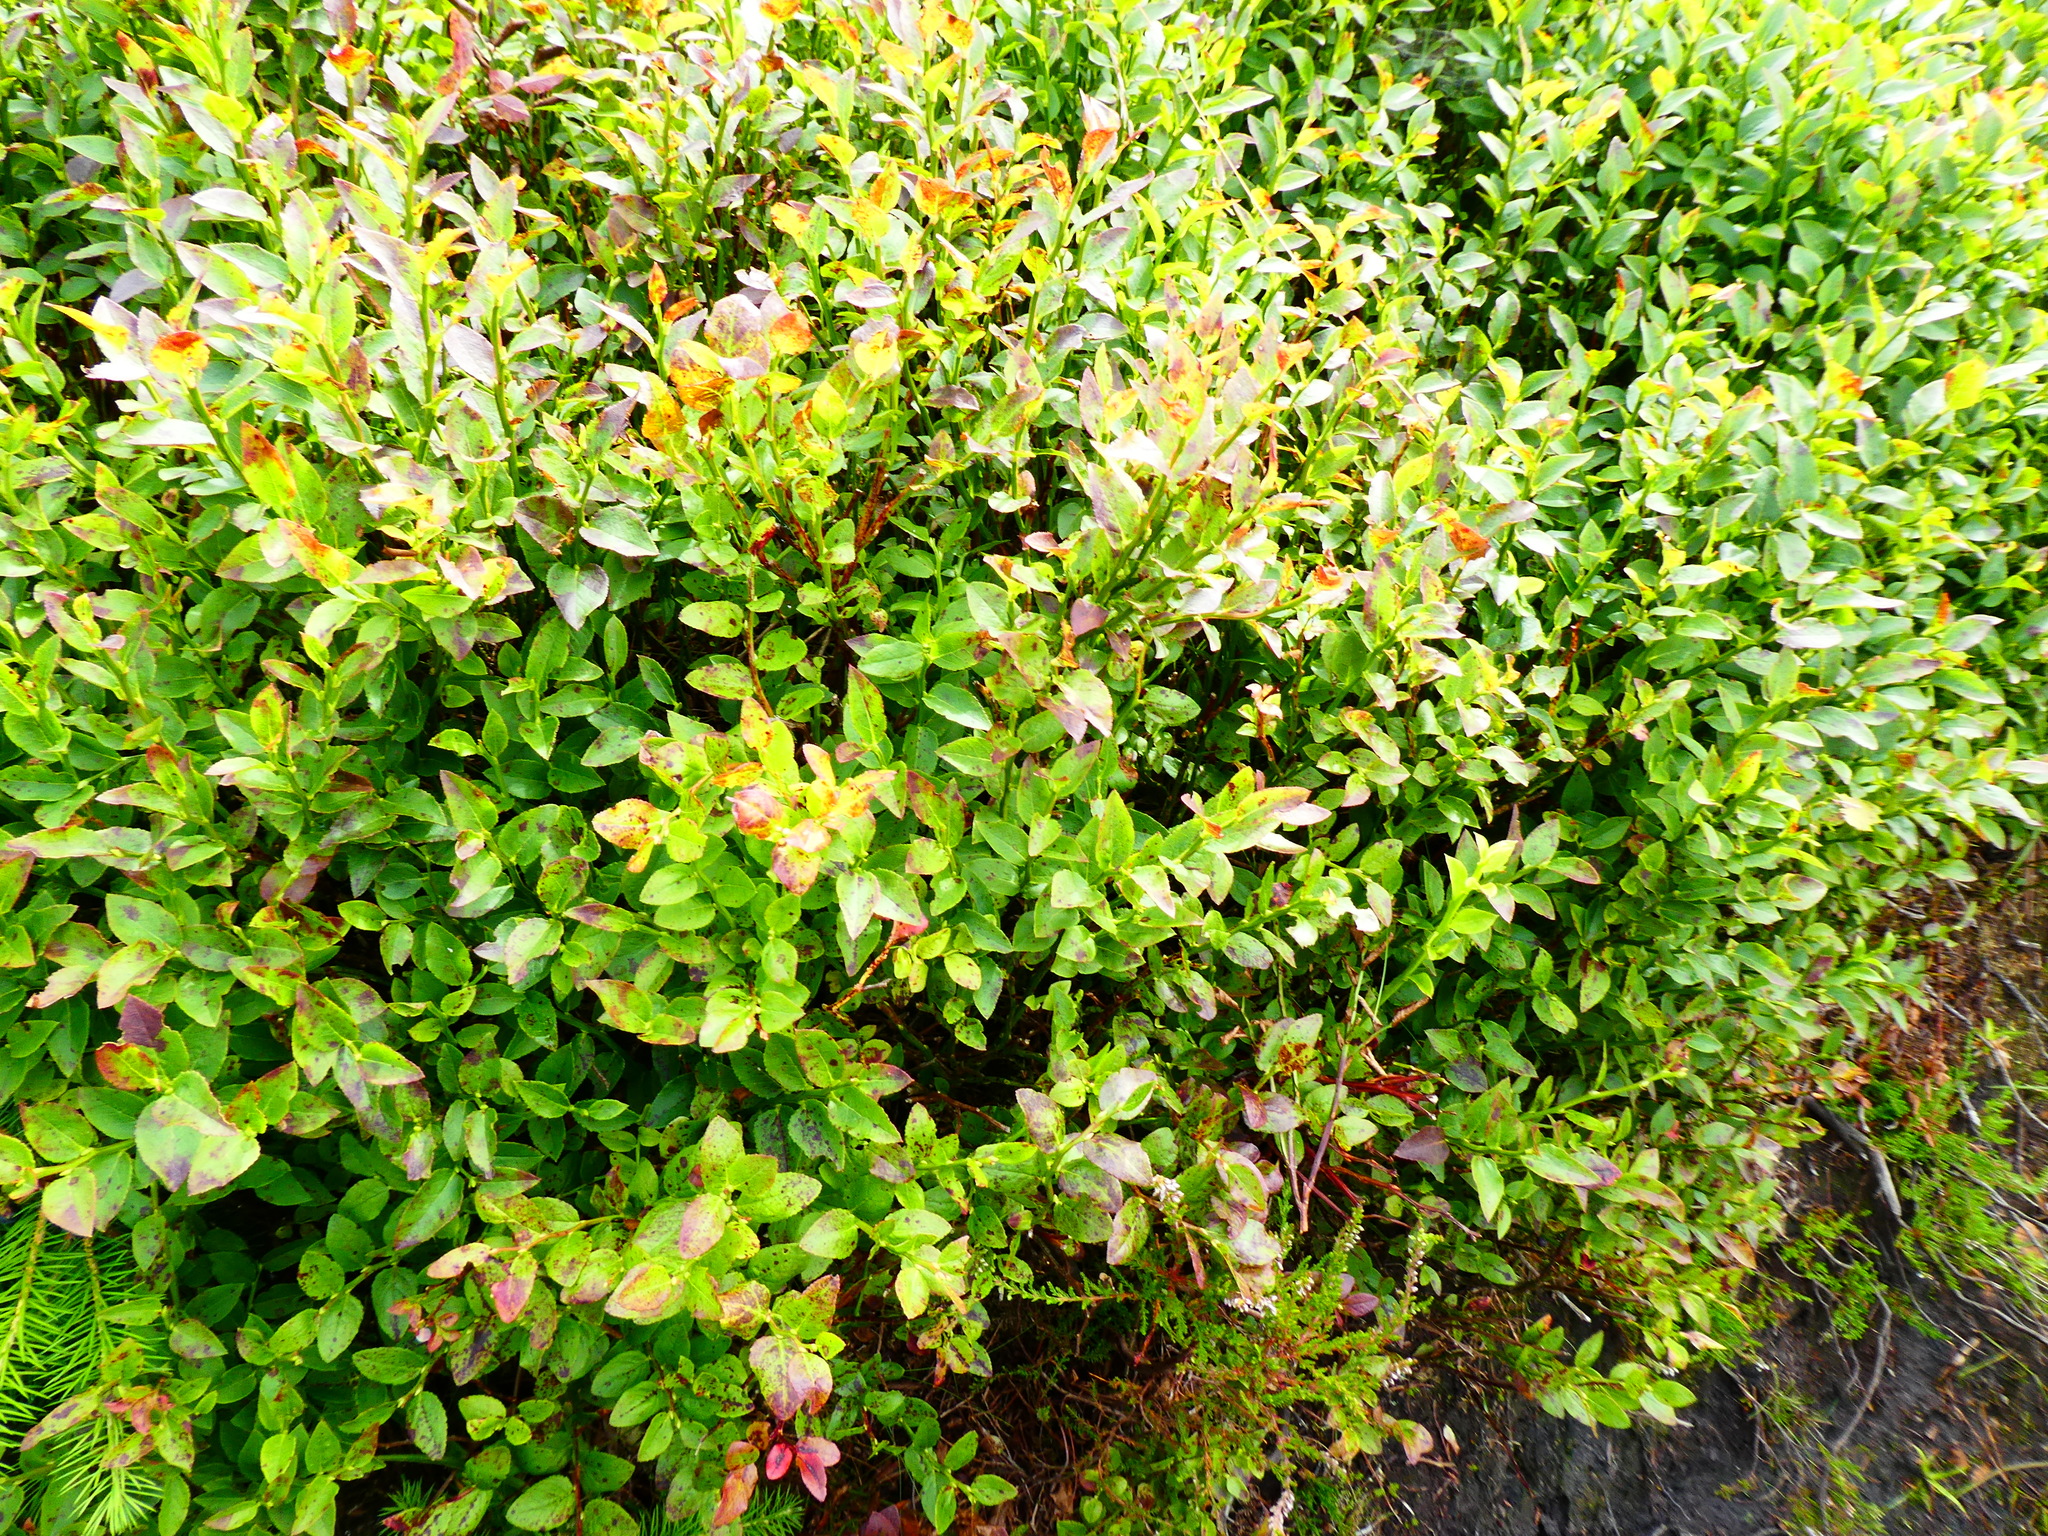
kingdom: Plantae
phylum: Tracheophyta
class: Magnoliopsida
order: Ericales
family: Ericaceae
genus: Vaccinium
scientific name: Vaccinium myrtillus
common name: Bilberry
